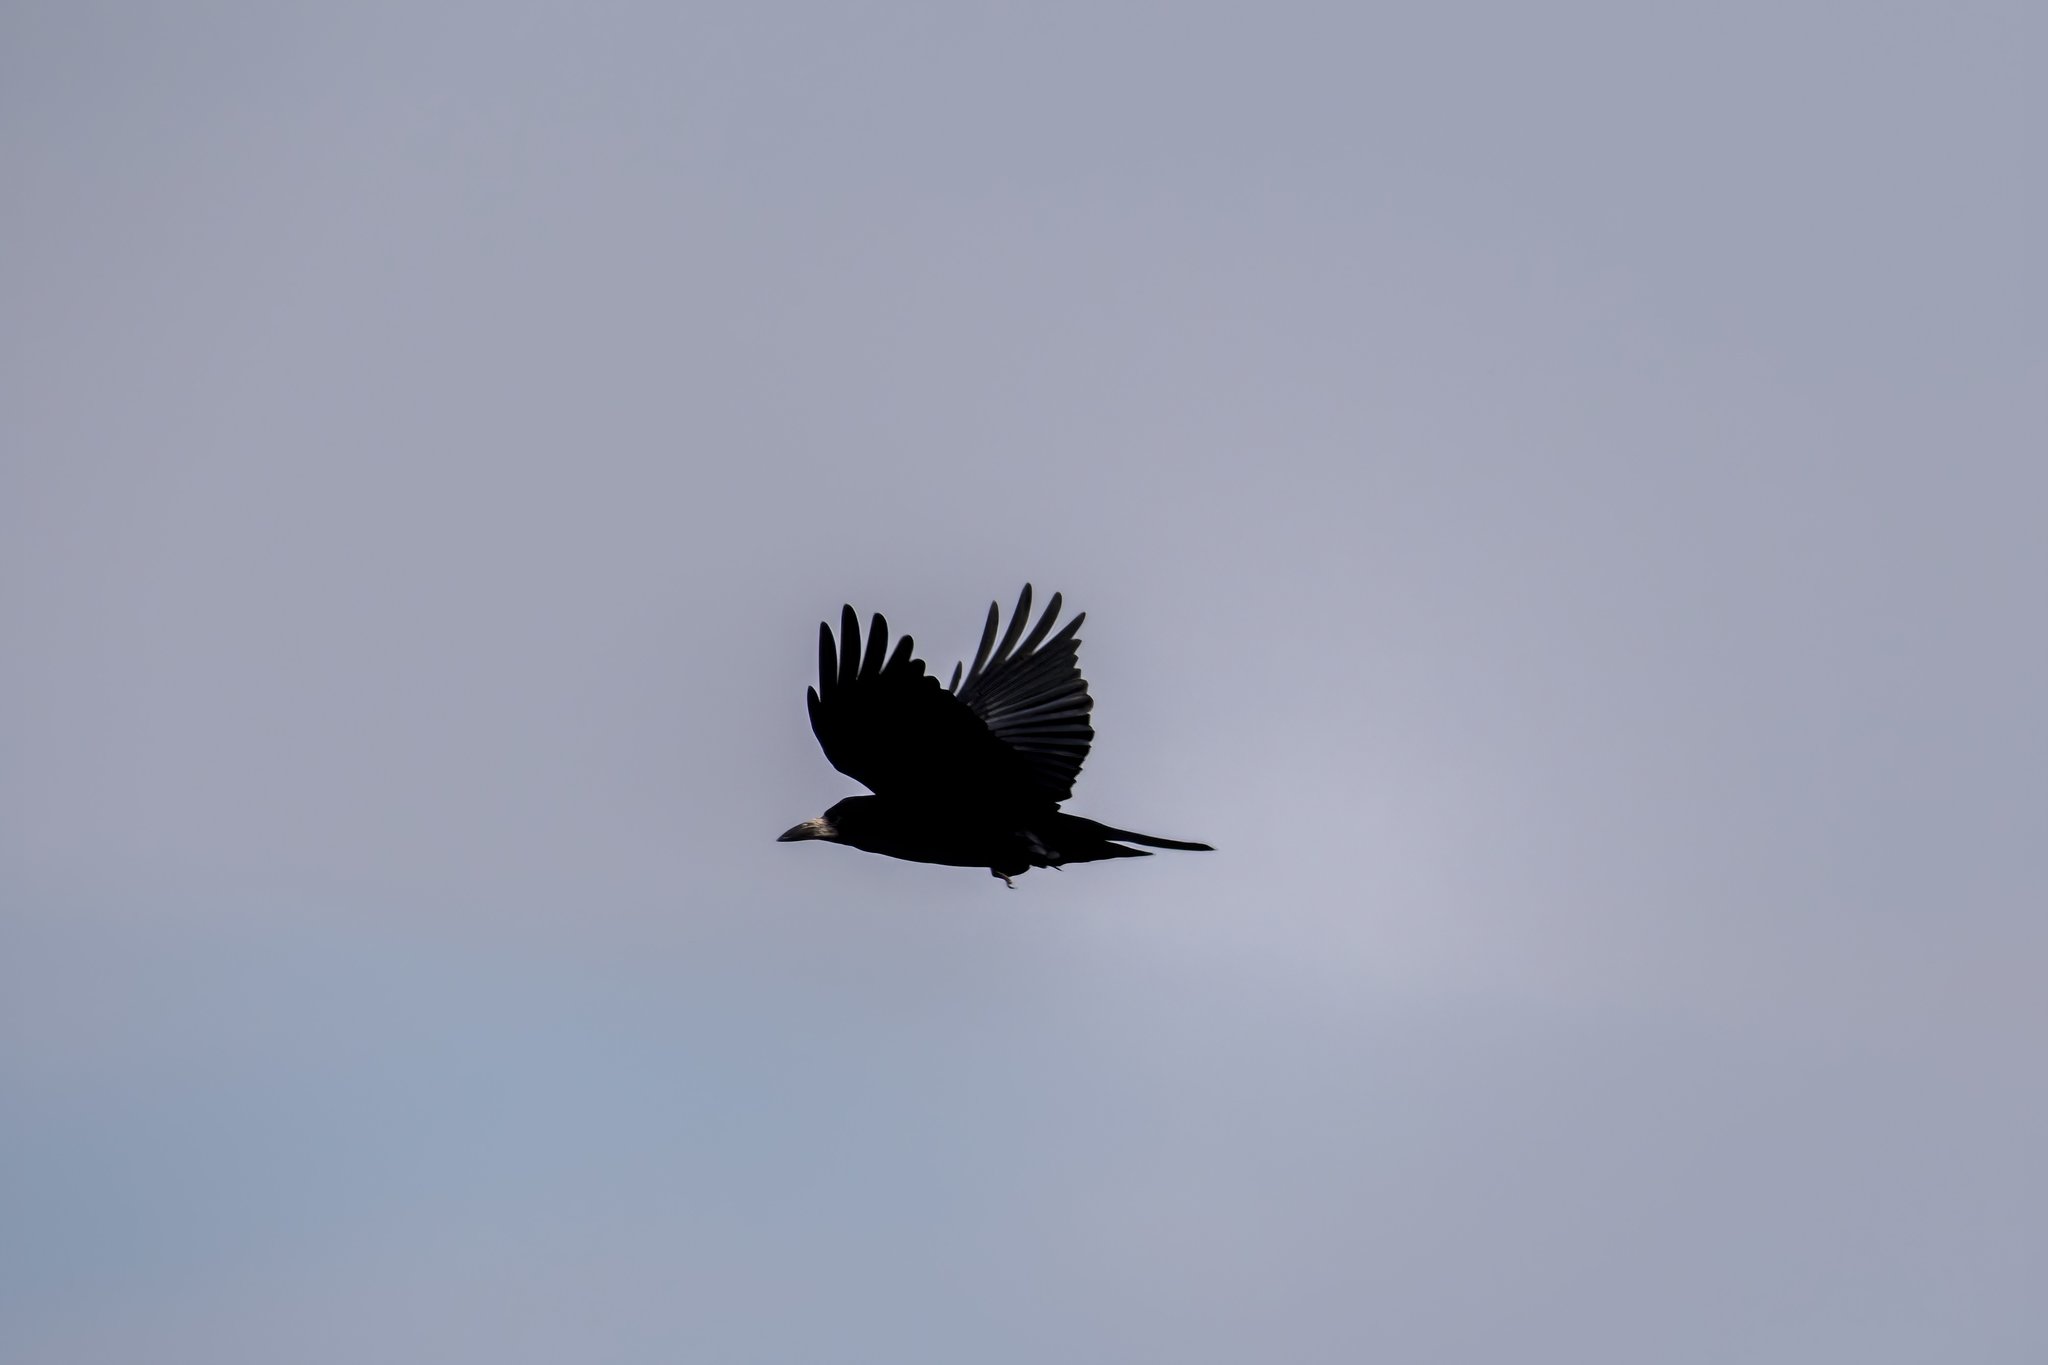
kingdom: Animalia
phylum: Chordata
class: Aves
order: Passeriformes
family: Corvidae
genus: Corvus
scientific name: Corvus frugilegus
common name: Rook
